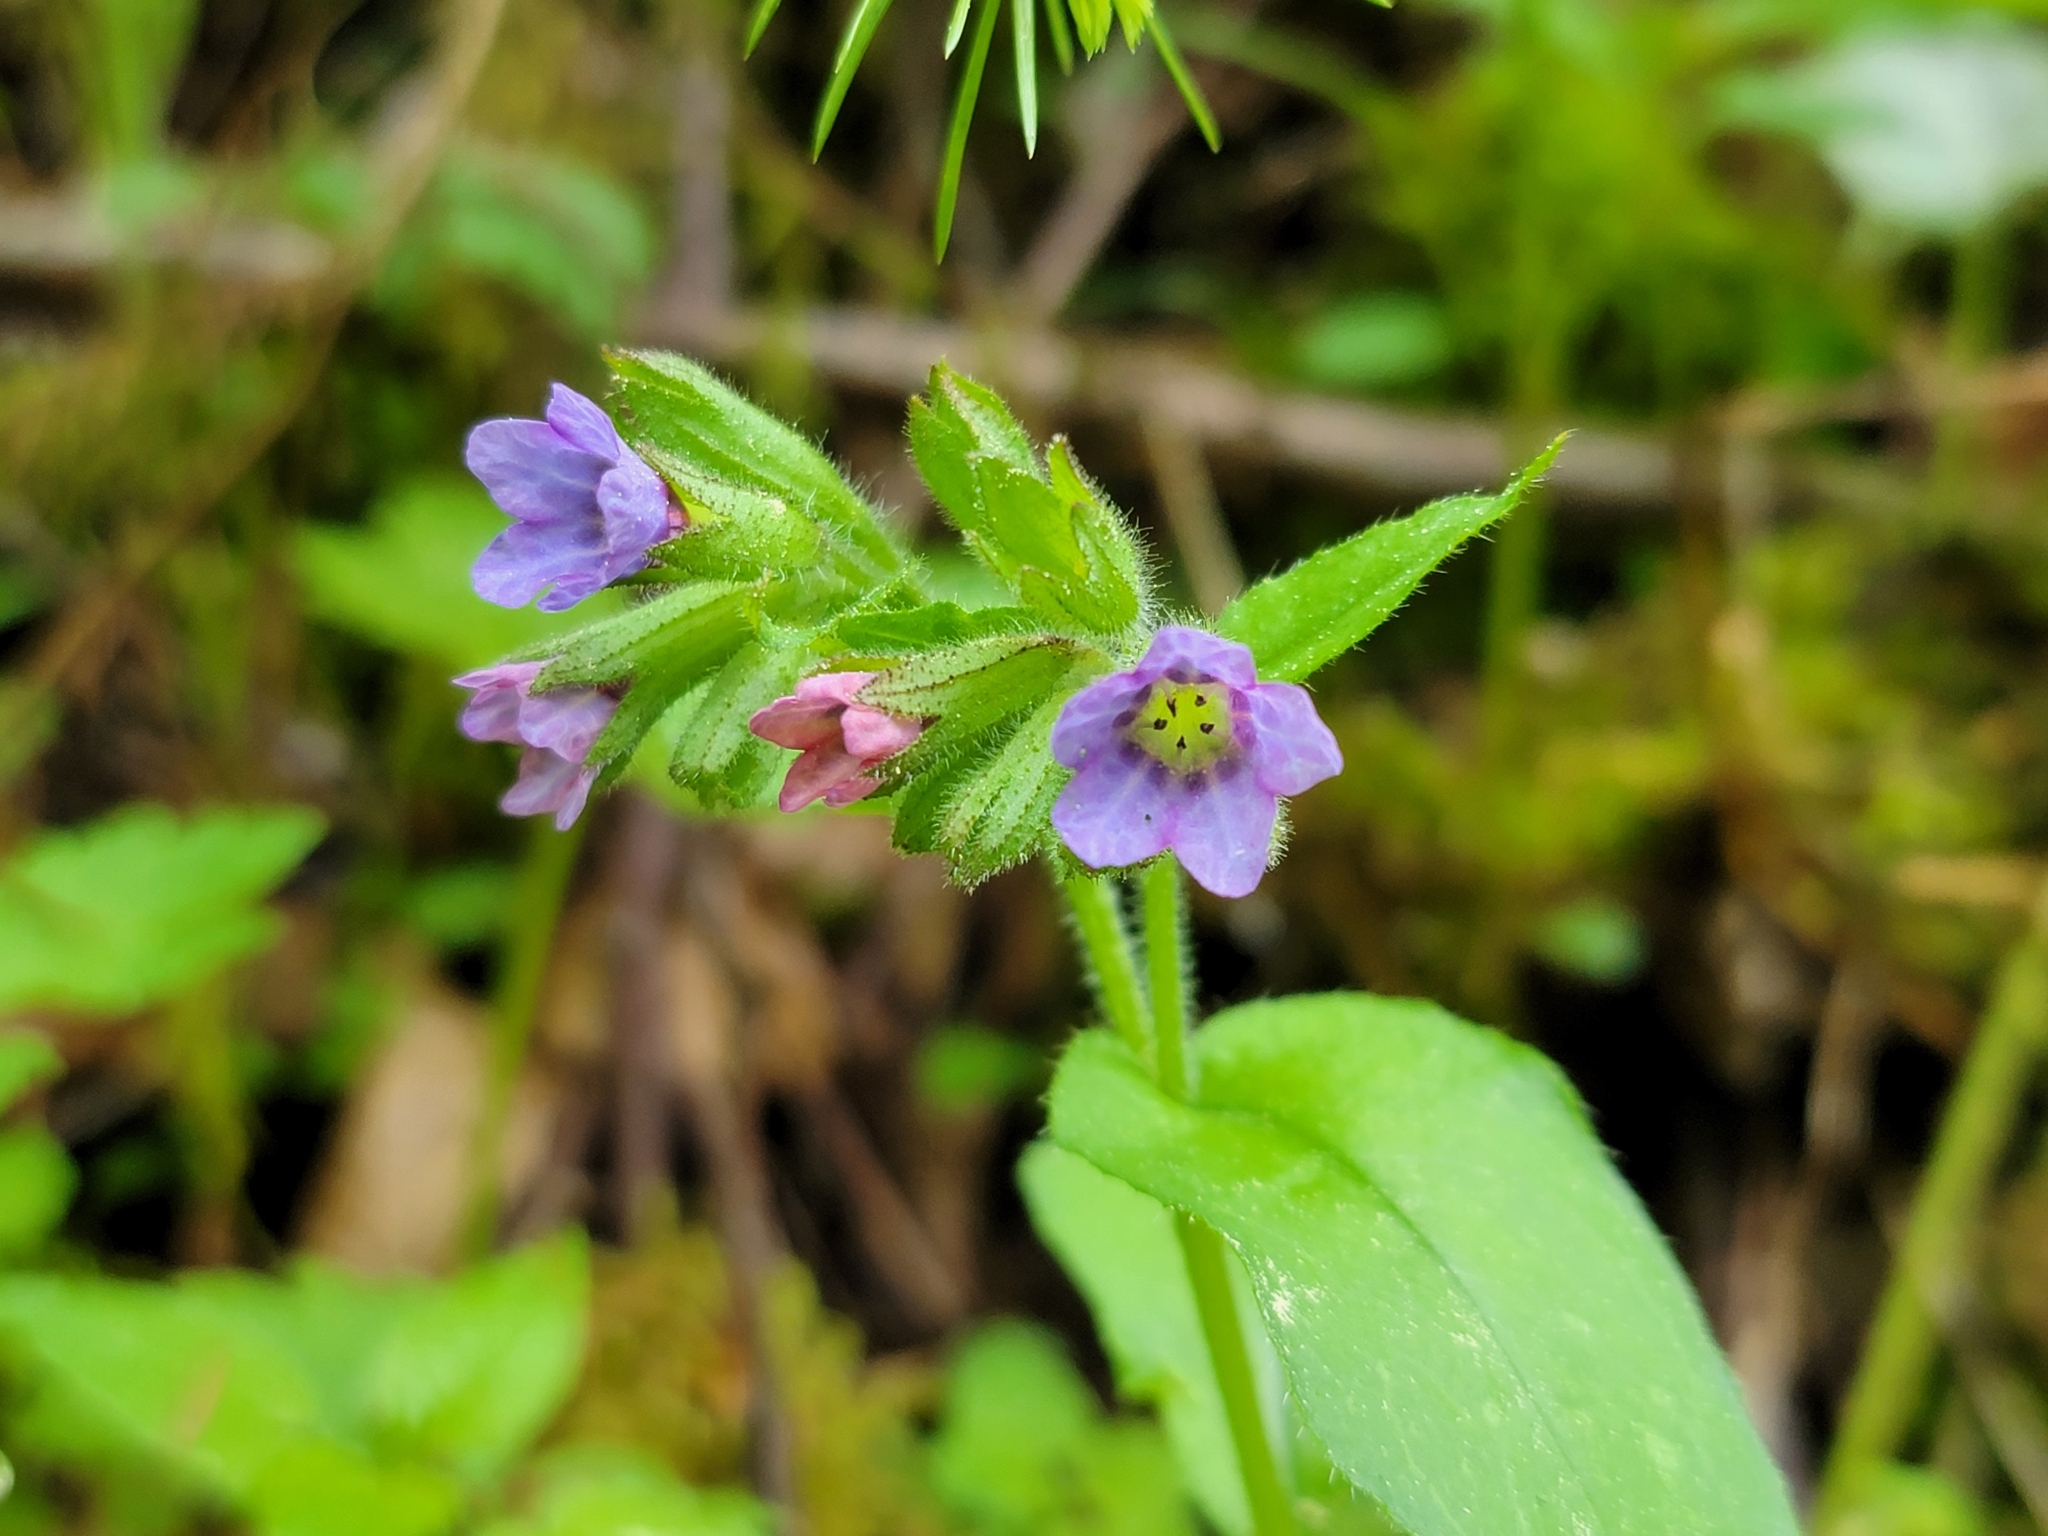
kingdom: Plantae
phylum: Tracheophyta
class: Magnoliopsida
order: Boraginales
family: Boraginaceae
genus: Pulmonaria
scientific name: Pulmonaria officinalis
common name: Lungwort
